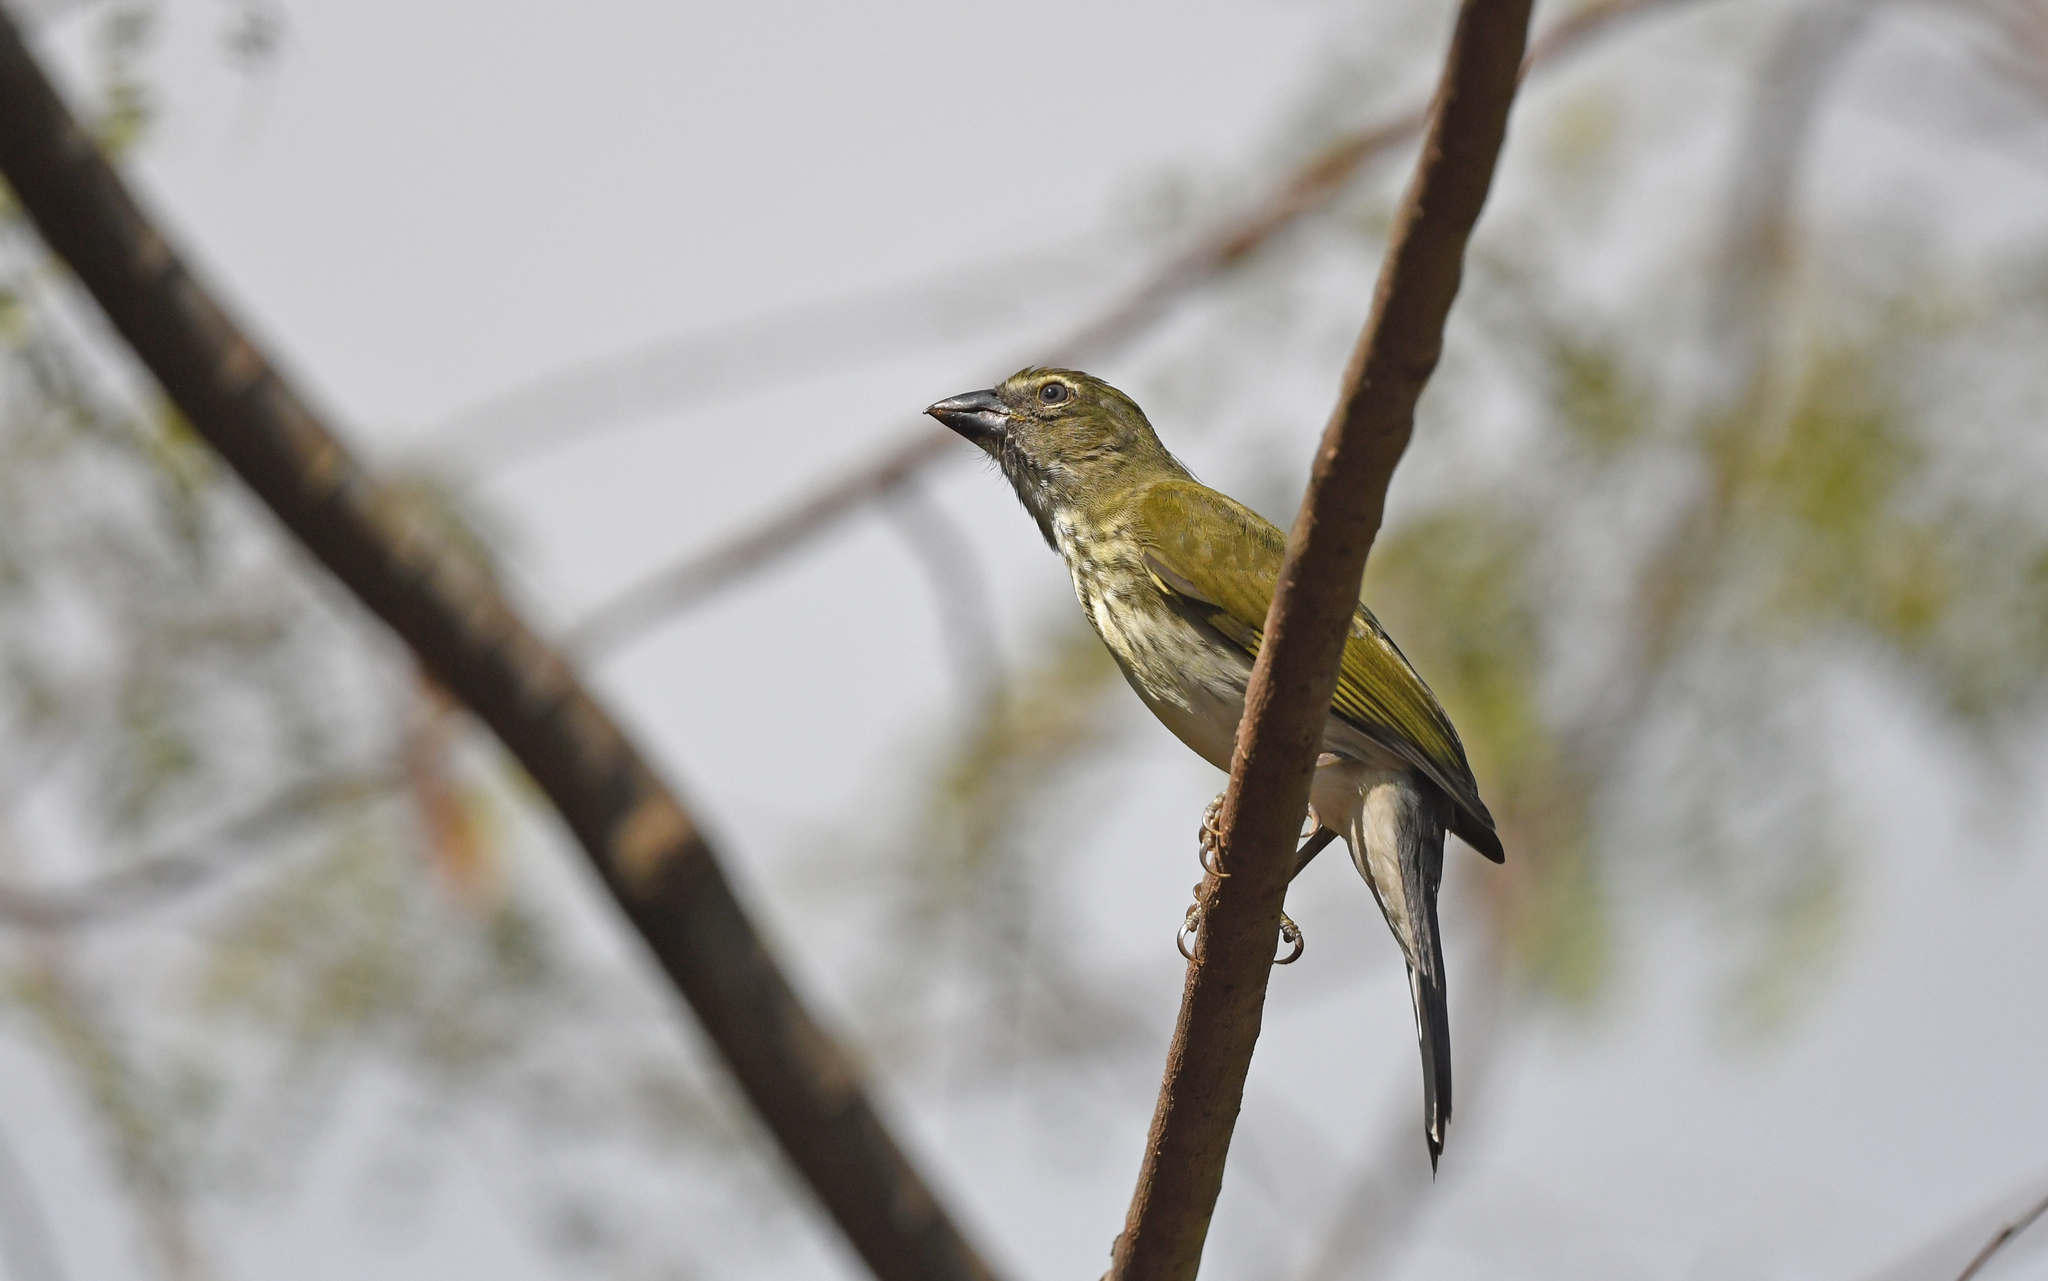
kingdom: Animalia
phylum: Chordata
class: Aves
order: Passeriformes
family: Thraupidae
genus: Saltator
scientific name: Saltator striatipectus
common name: Streaked saltator
